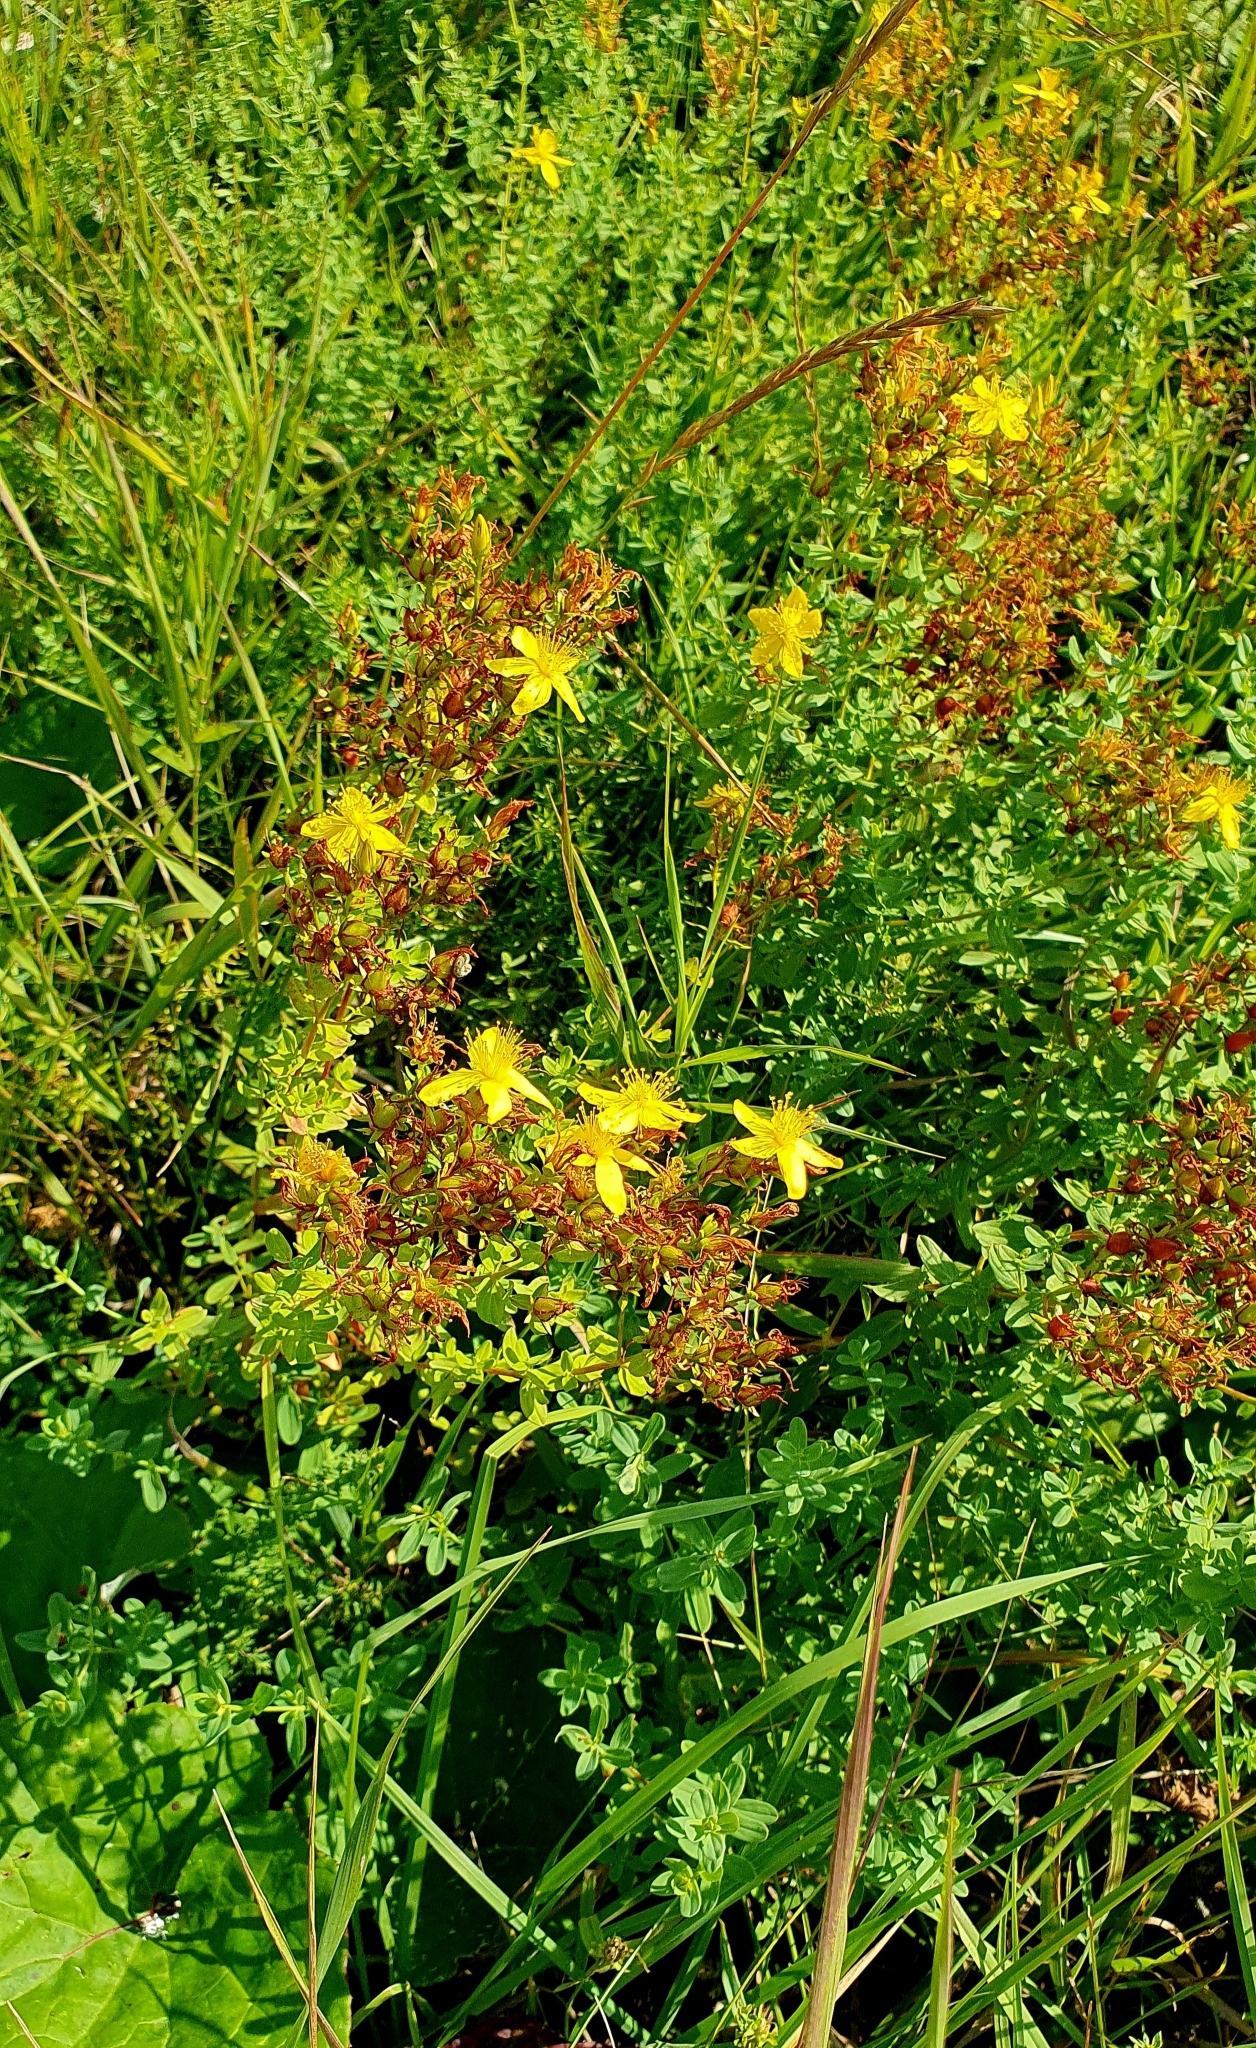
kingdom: Plantae
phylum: Tracheophyta
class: Magnoliopsida
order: Malpighiales
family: Hypericaceae
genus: Hypericum
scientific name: Hypericum perforatum
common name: Common st. johnswort
